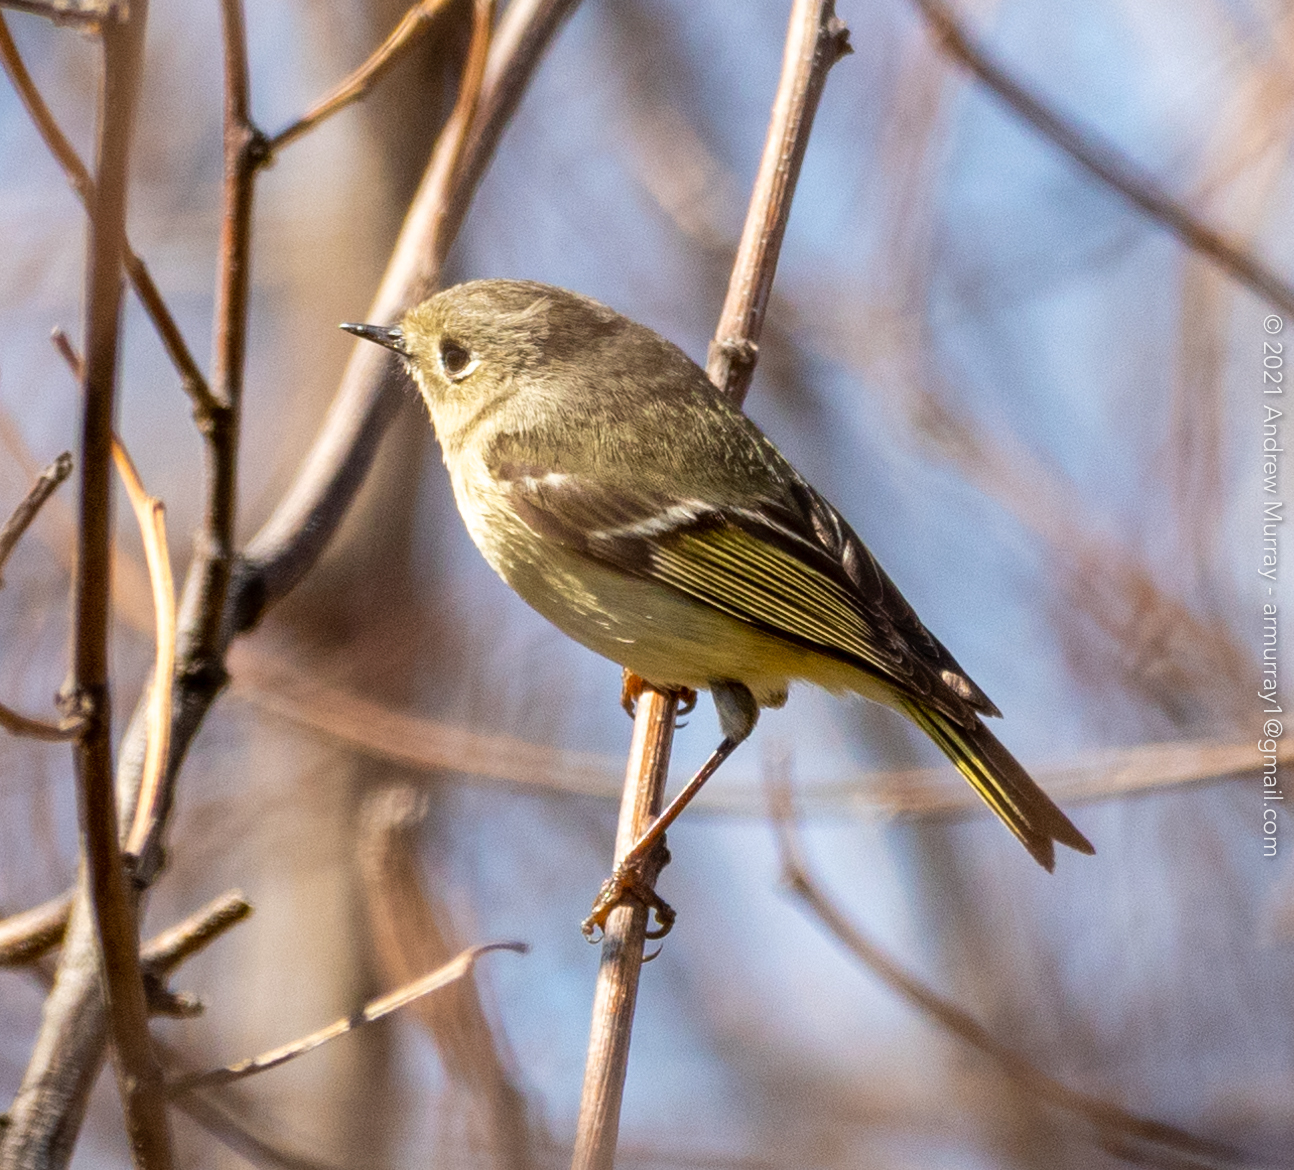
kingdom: Animalia
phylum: Chordata
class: Aves
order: Passeriformes
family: Regulidae
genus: Regulus
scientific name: Regulus calendula
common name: Ruby-crowned kinglet
